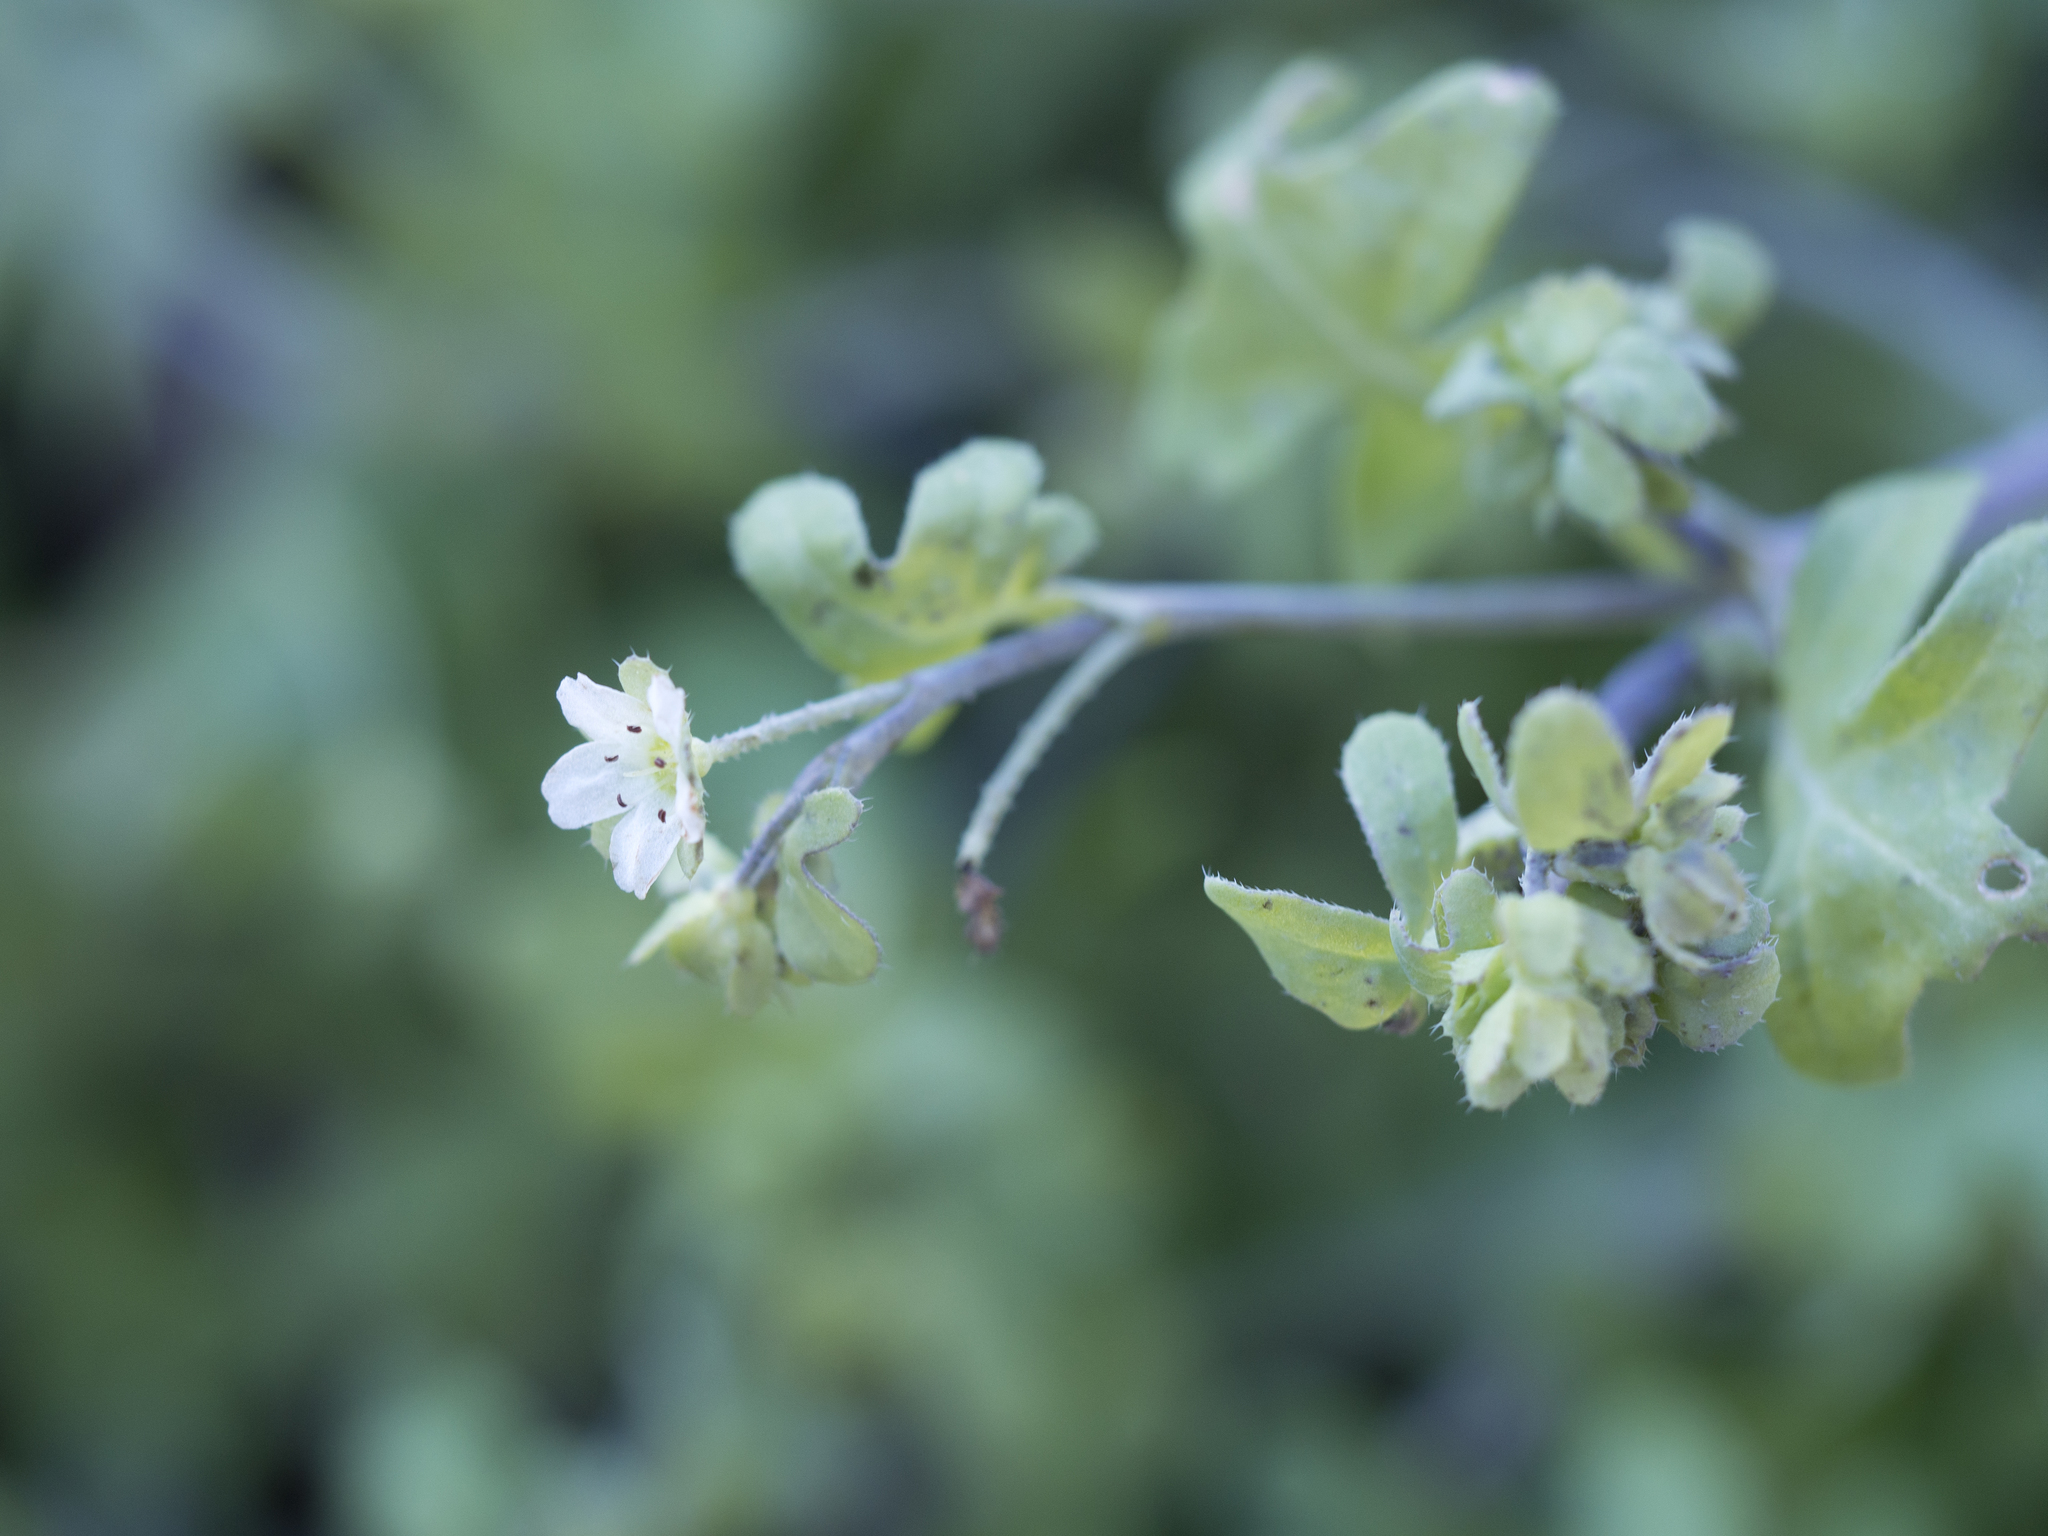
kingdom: Plantae
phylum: Tracheophyta
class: Magnoliopsida
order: Boraginales
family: Hydrophyllaceae
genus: Pholistoma
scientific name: Pholistoma membranaceum
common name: White fiesta-flower
